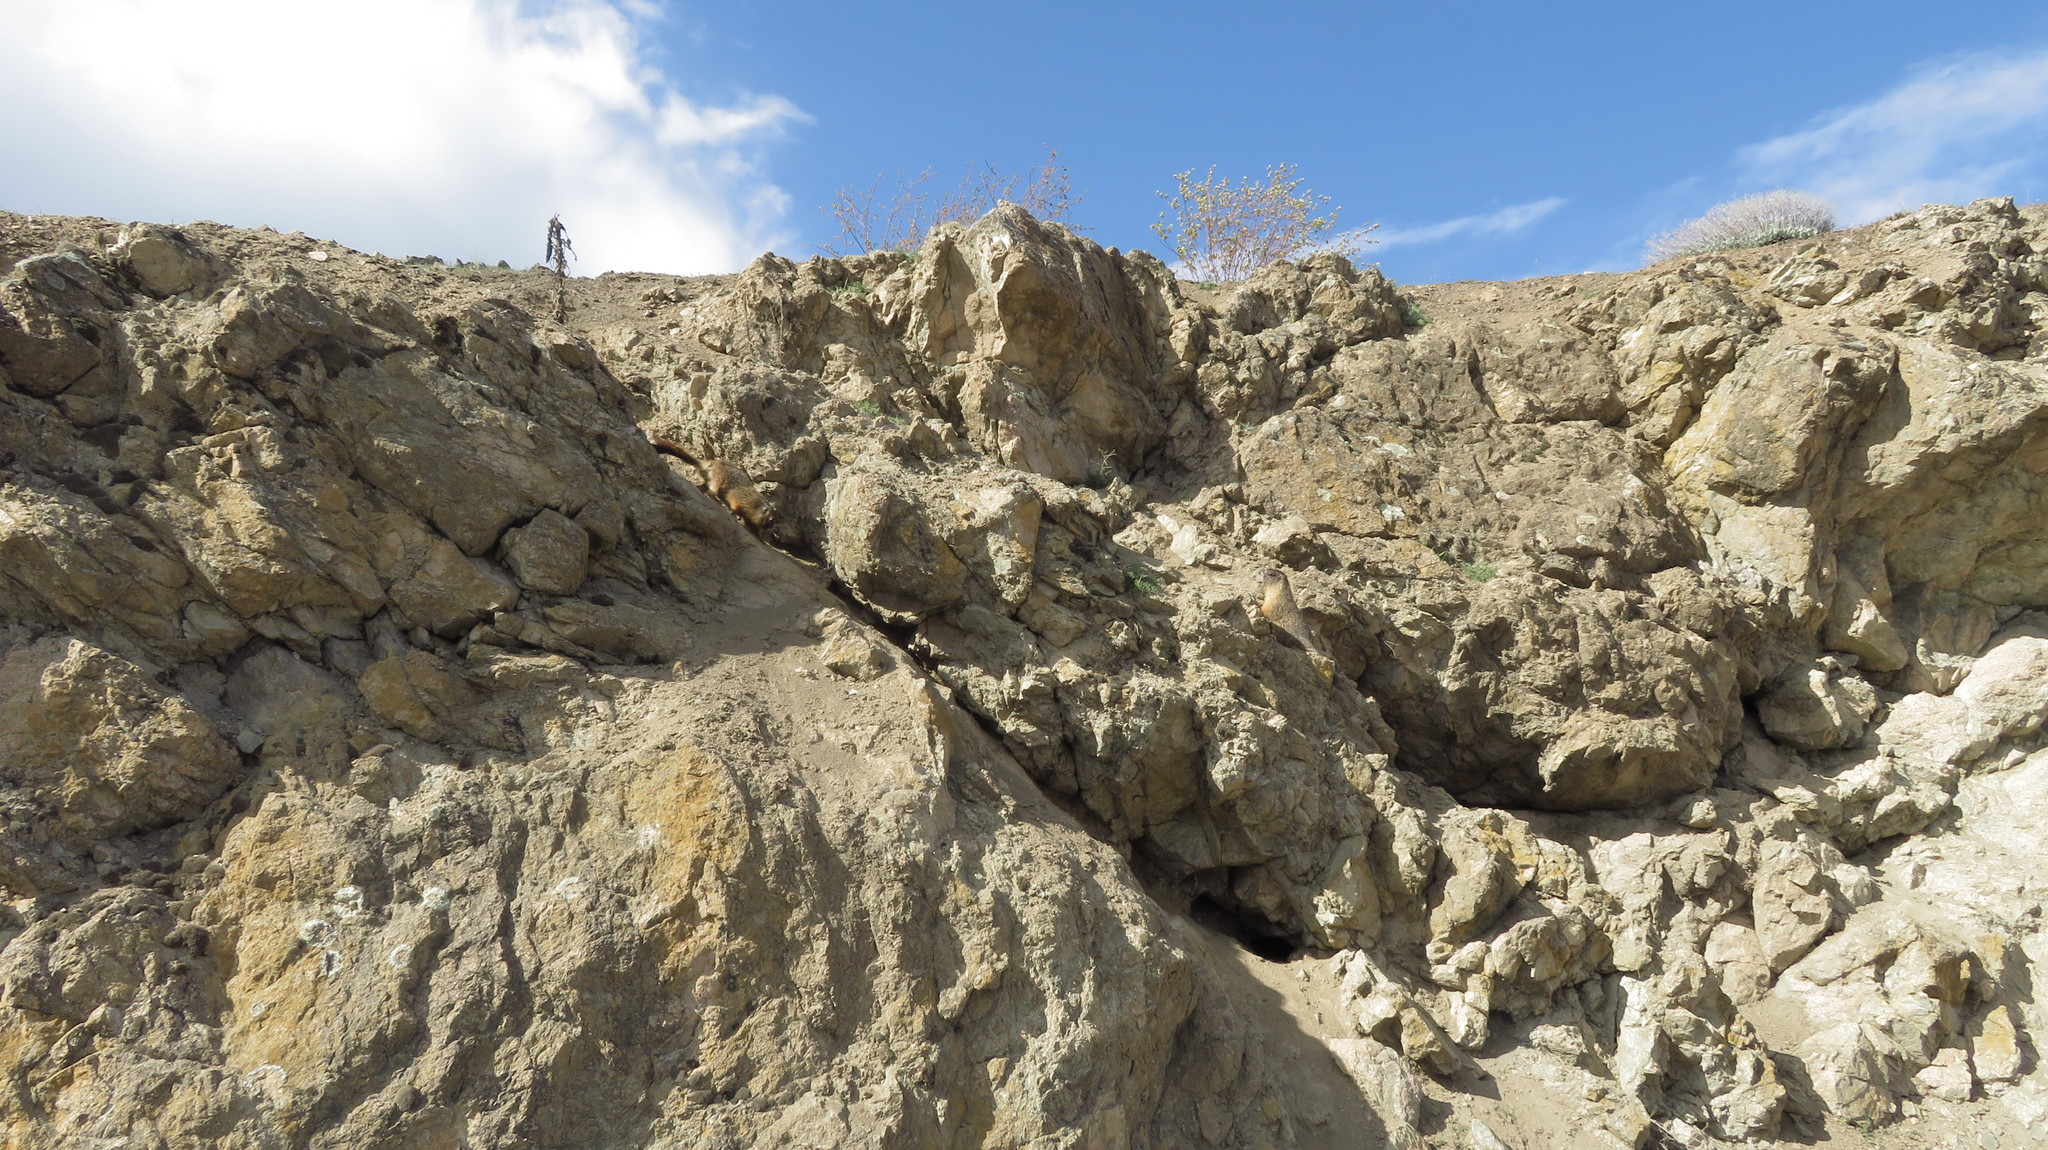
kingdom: Animalia
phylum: Chordata
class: Mammalia
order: Rodentia
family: Sciuridae
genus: Marmota
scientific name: Marmota flaviventris
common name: Yellow-bellied marmot
